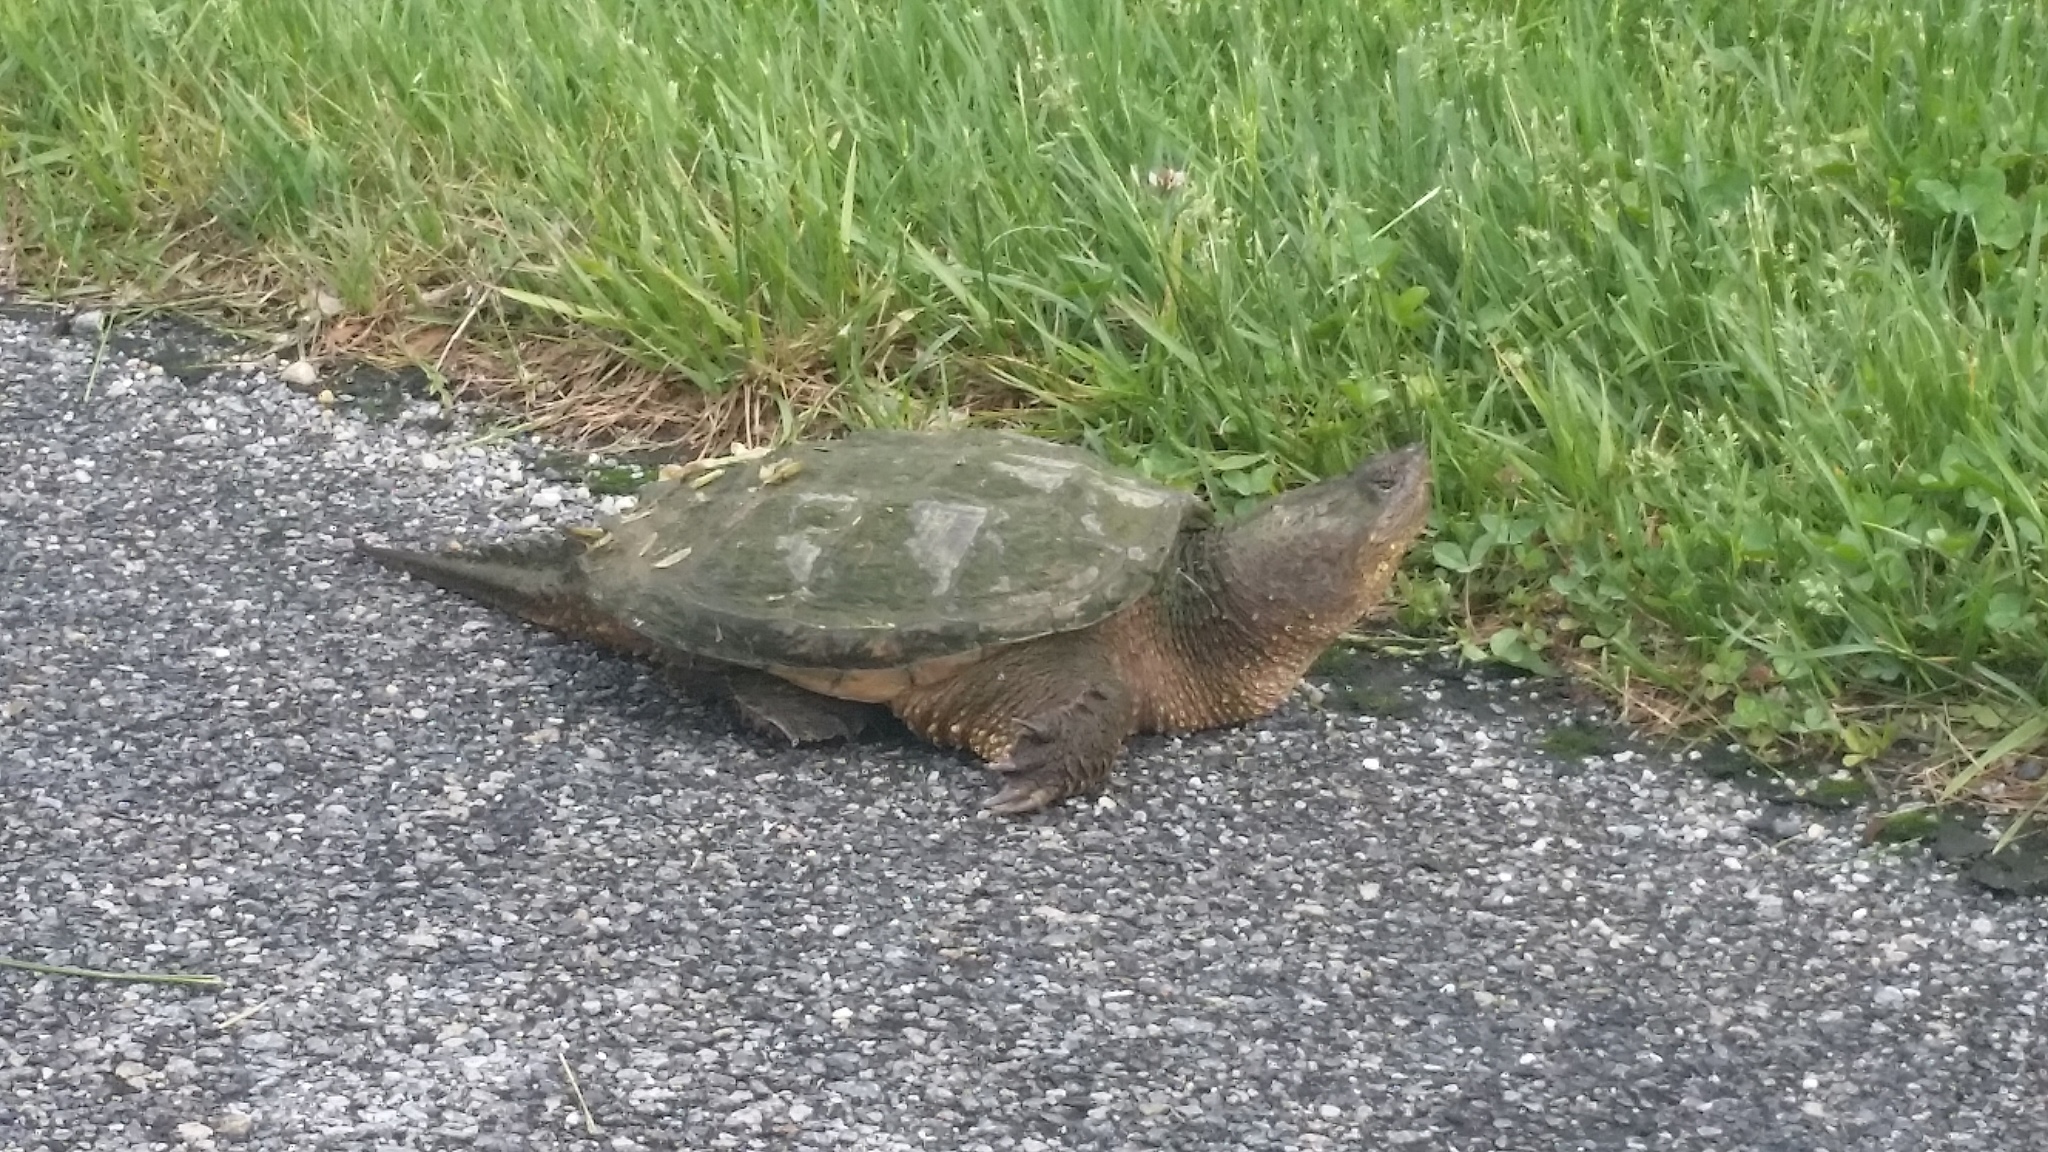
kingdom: Animalia
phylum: Chordata
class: Testudines
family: Chelydridae
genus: Chelydra
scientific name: Chelydra serpentina
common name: Common snapping turtle
